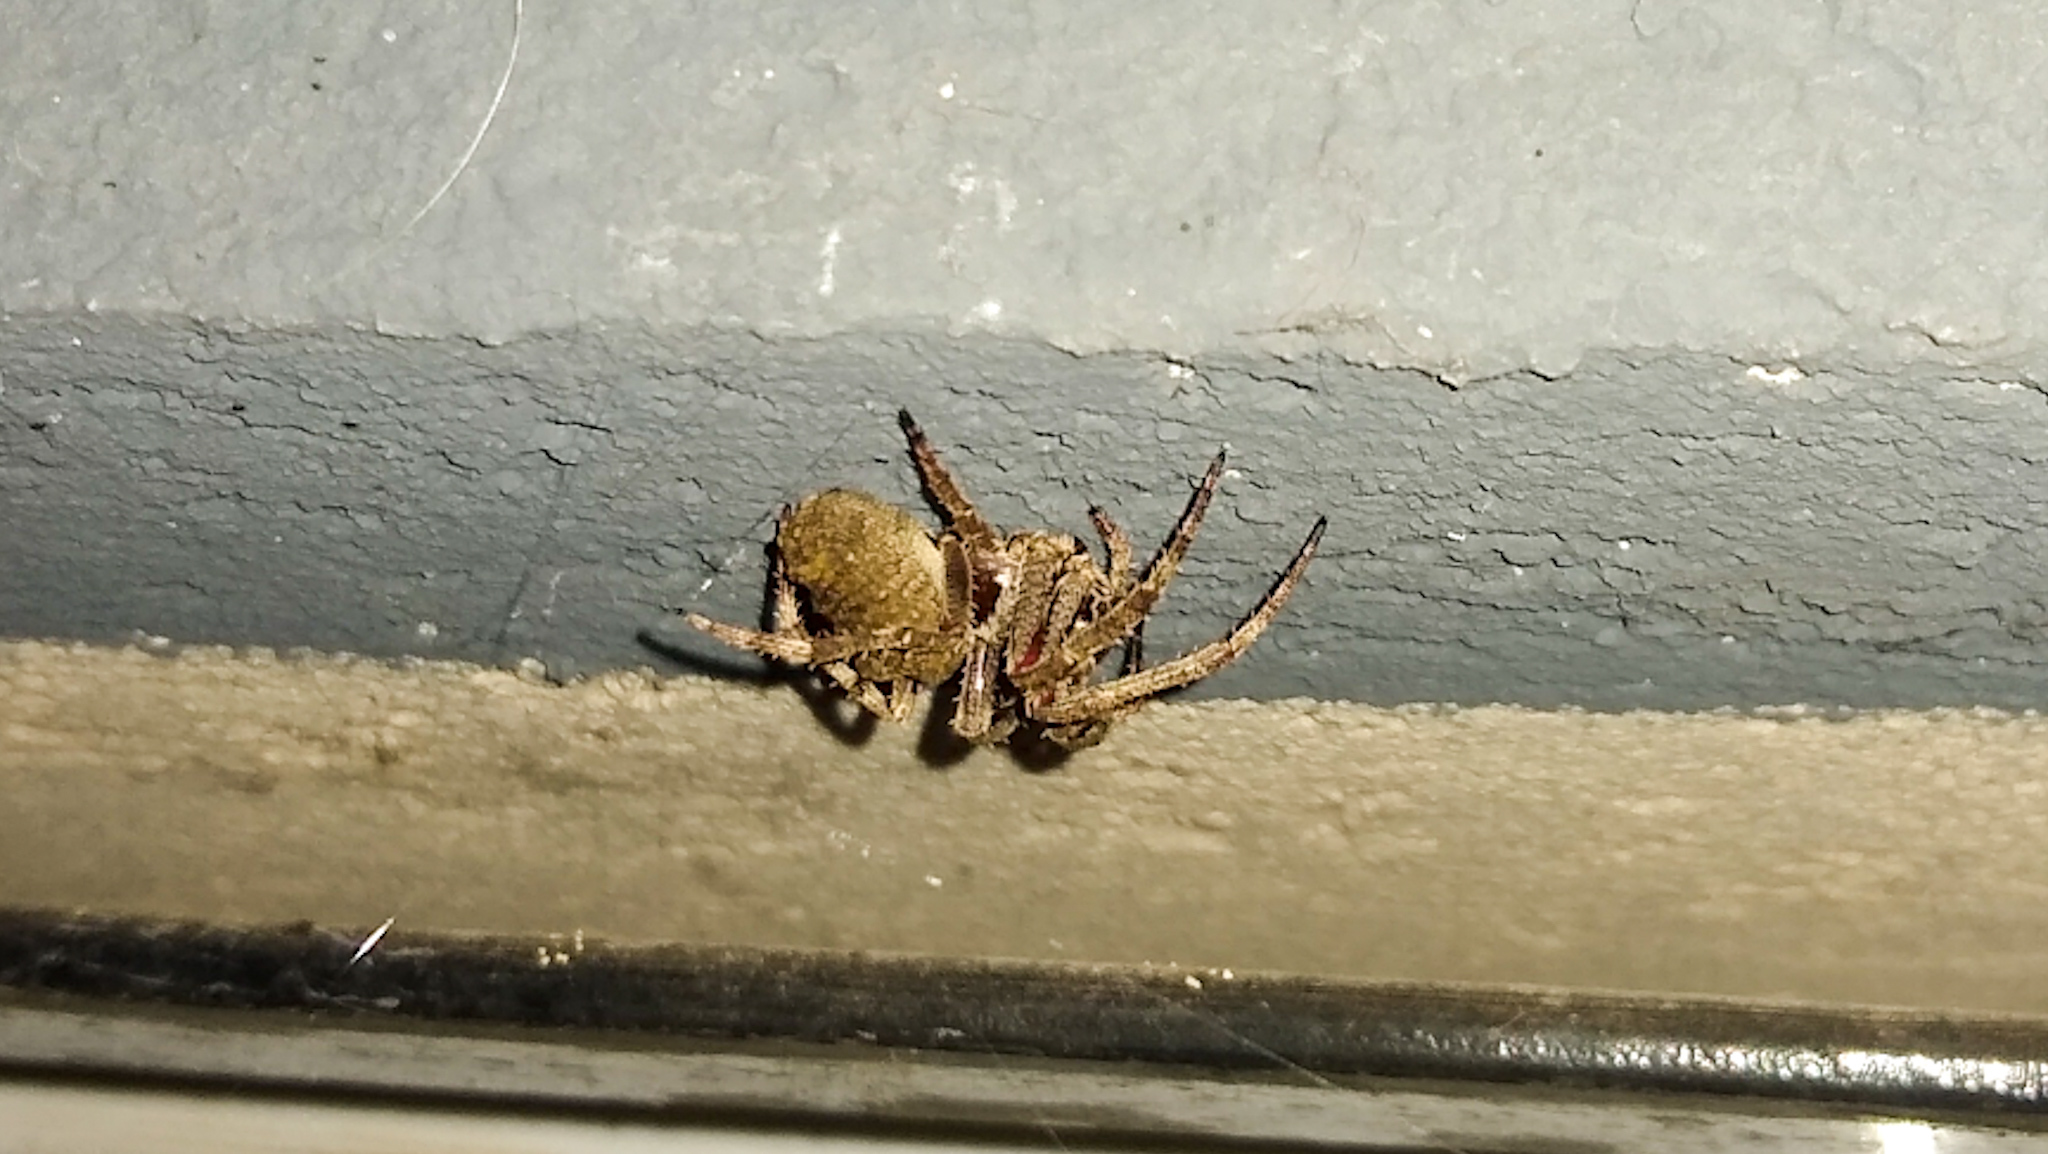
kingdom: Animalia
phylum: Arthropoda
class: Arachnida
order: Araneae
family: Araneidae
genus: Parawixia
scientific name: Parawixia audax
